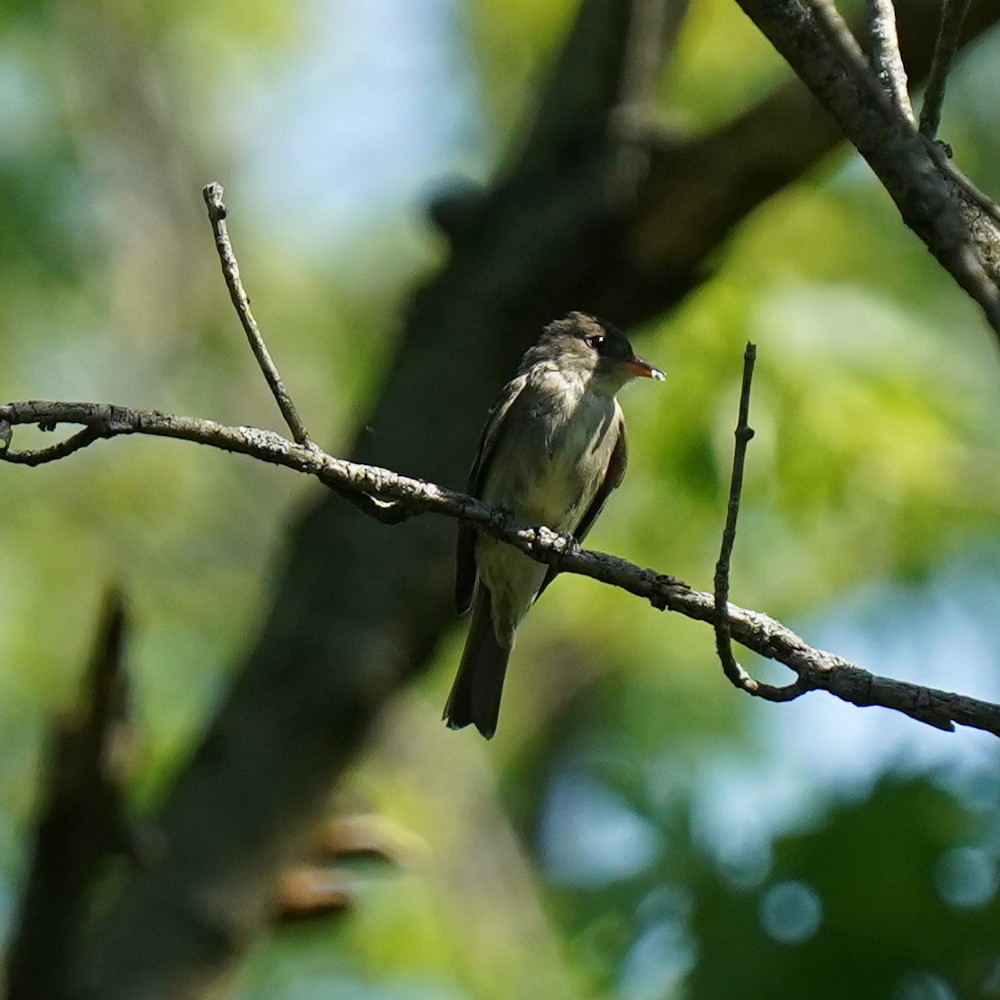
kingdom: Animalia
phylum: Chordata
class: Aves
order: Passeriformes
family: Tyrannidae
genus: Contopus
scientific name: Contopus virens
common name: Eastern wood-pewee
